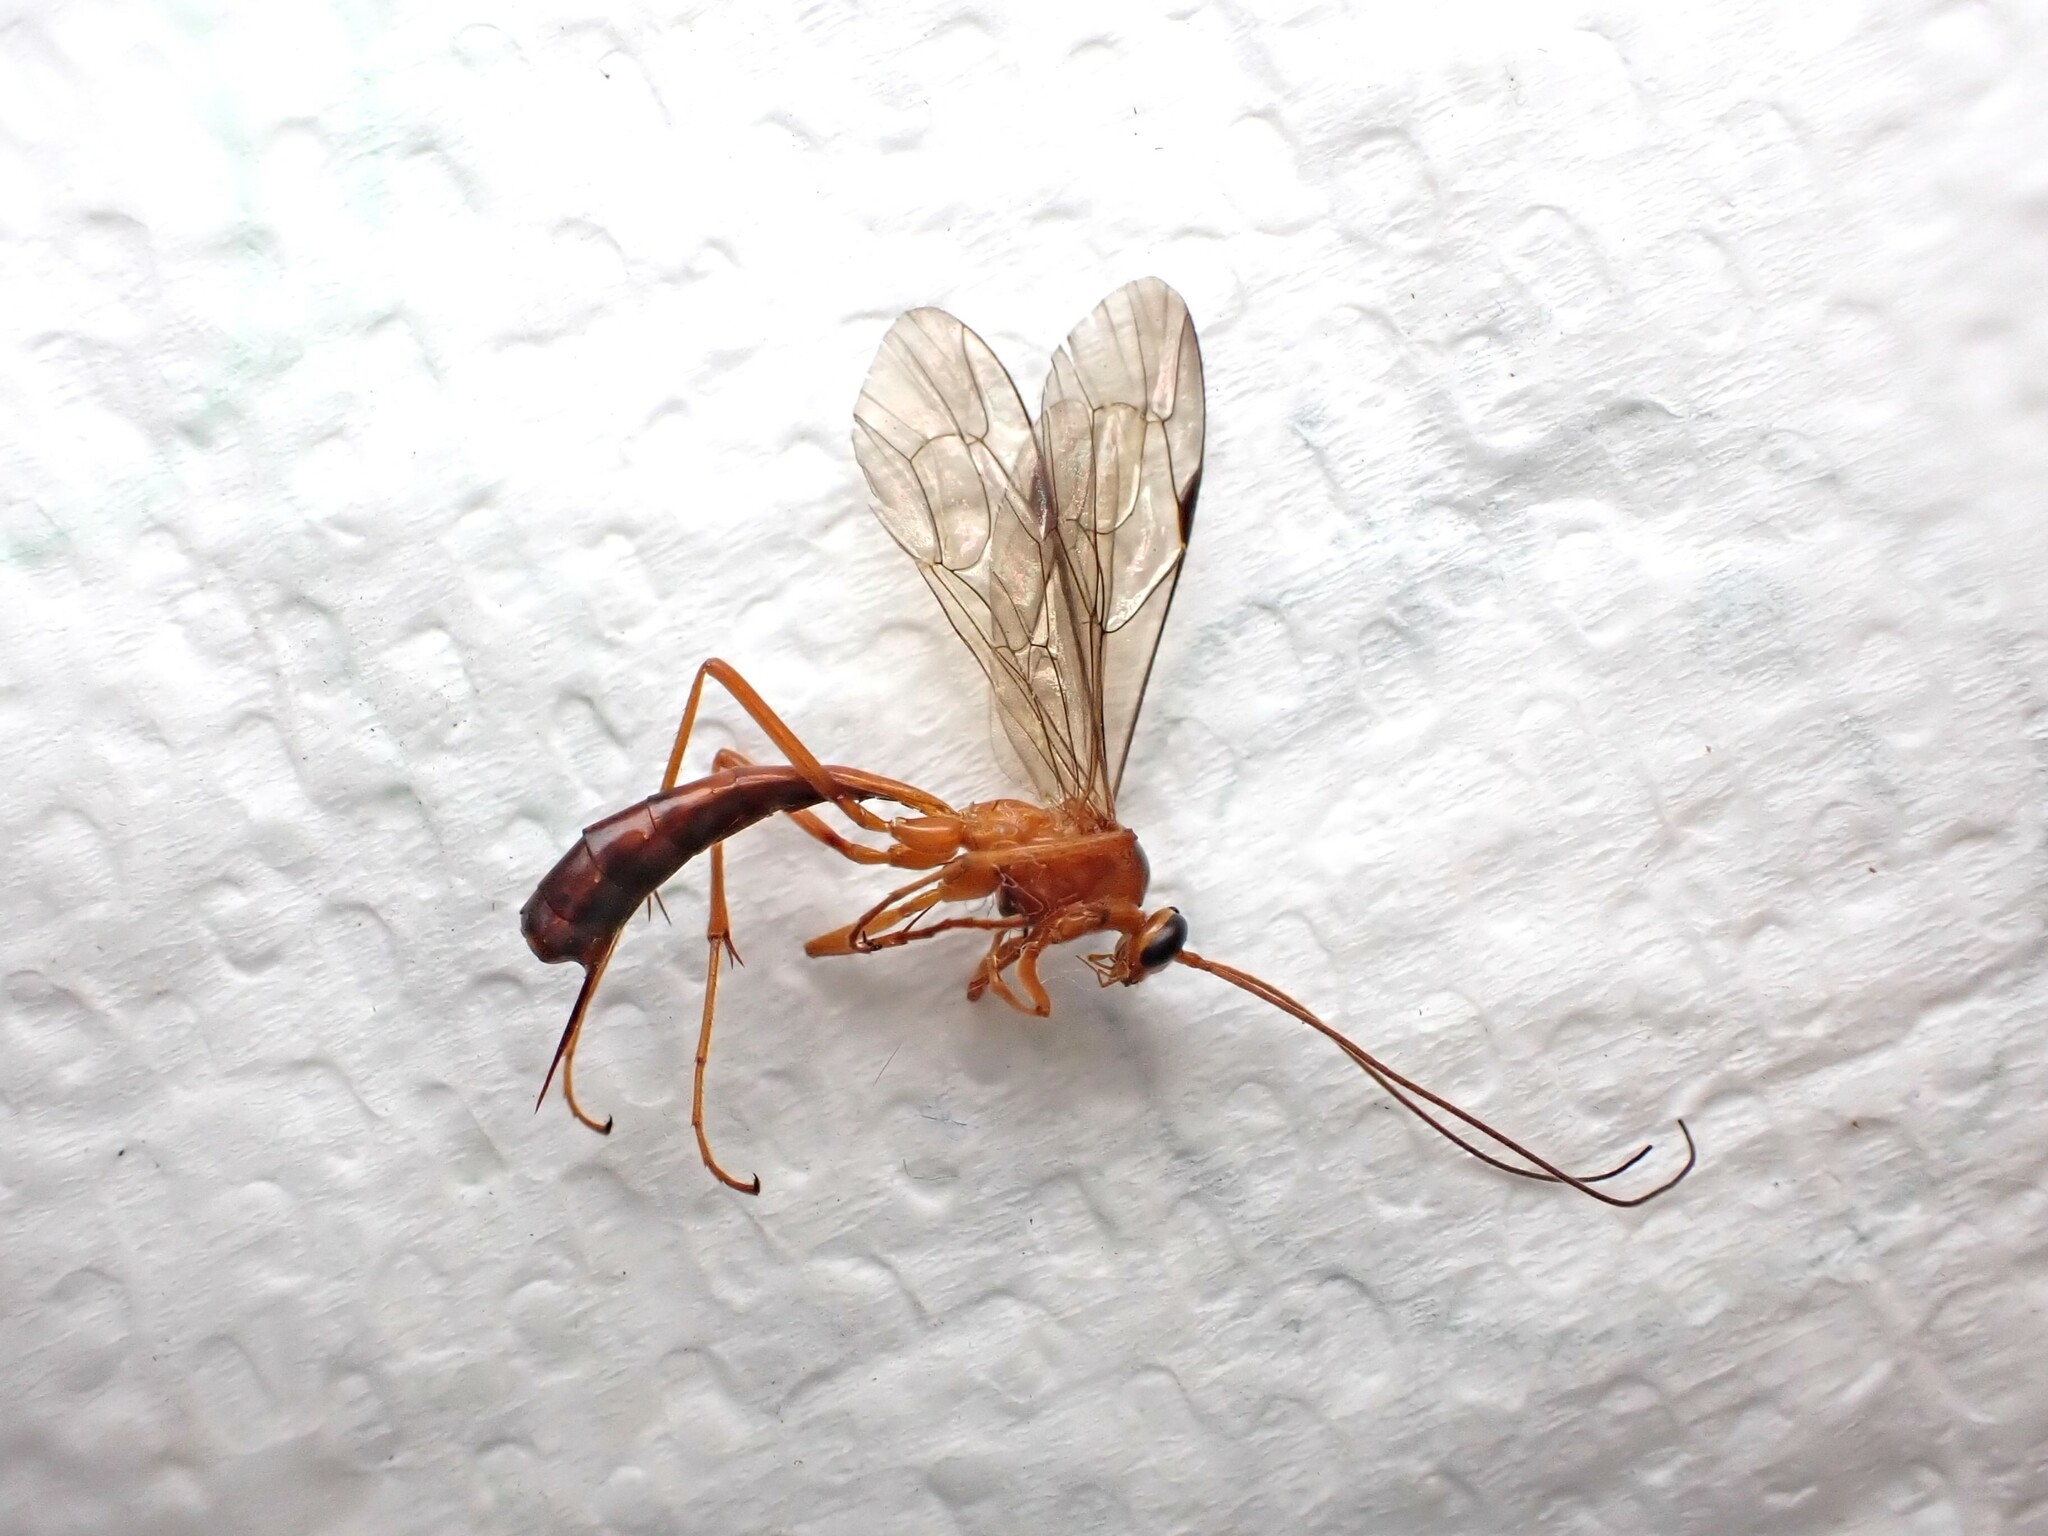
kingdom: Animalia
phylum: Arthropoda
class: Insecta
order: Hymenoptera
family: Ichneumonidae
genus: Netelia
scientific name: Netelia ephippiata
